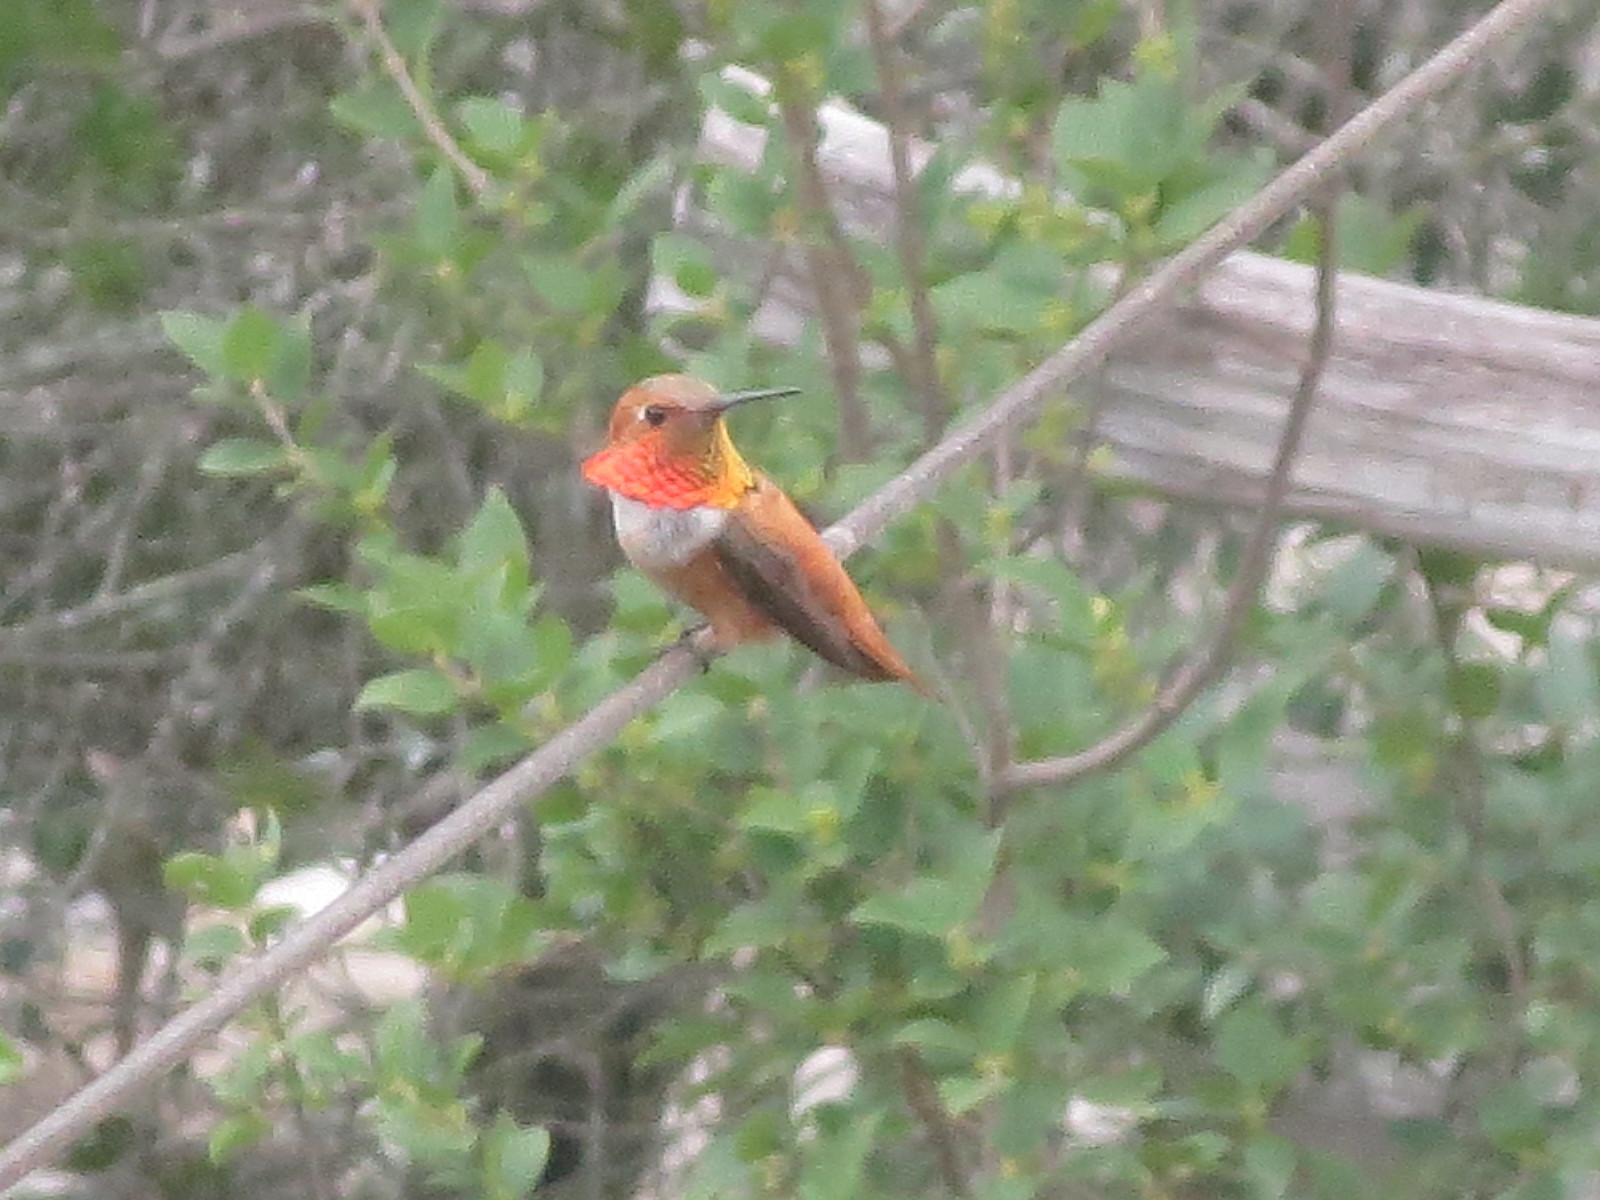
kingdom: Animalia
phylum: Chordata
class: Aves
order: Apodiformes
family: Trochilidae
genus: Selasphorus
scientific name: Selasphorus rufus
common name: Rufous hummingbird
